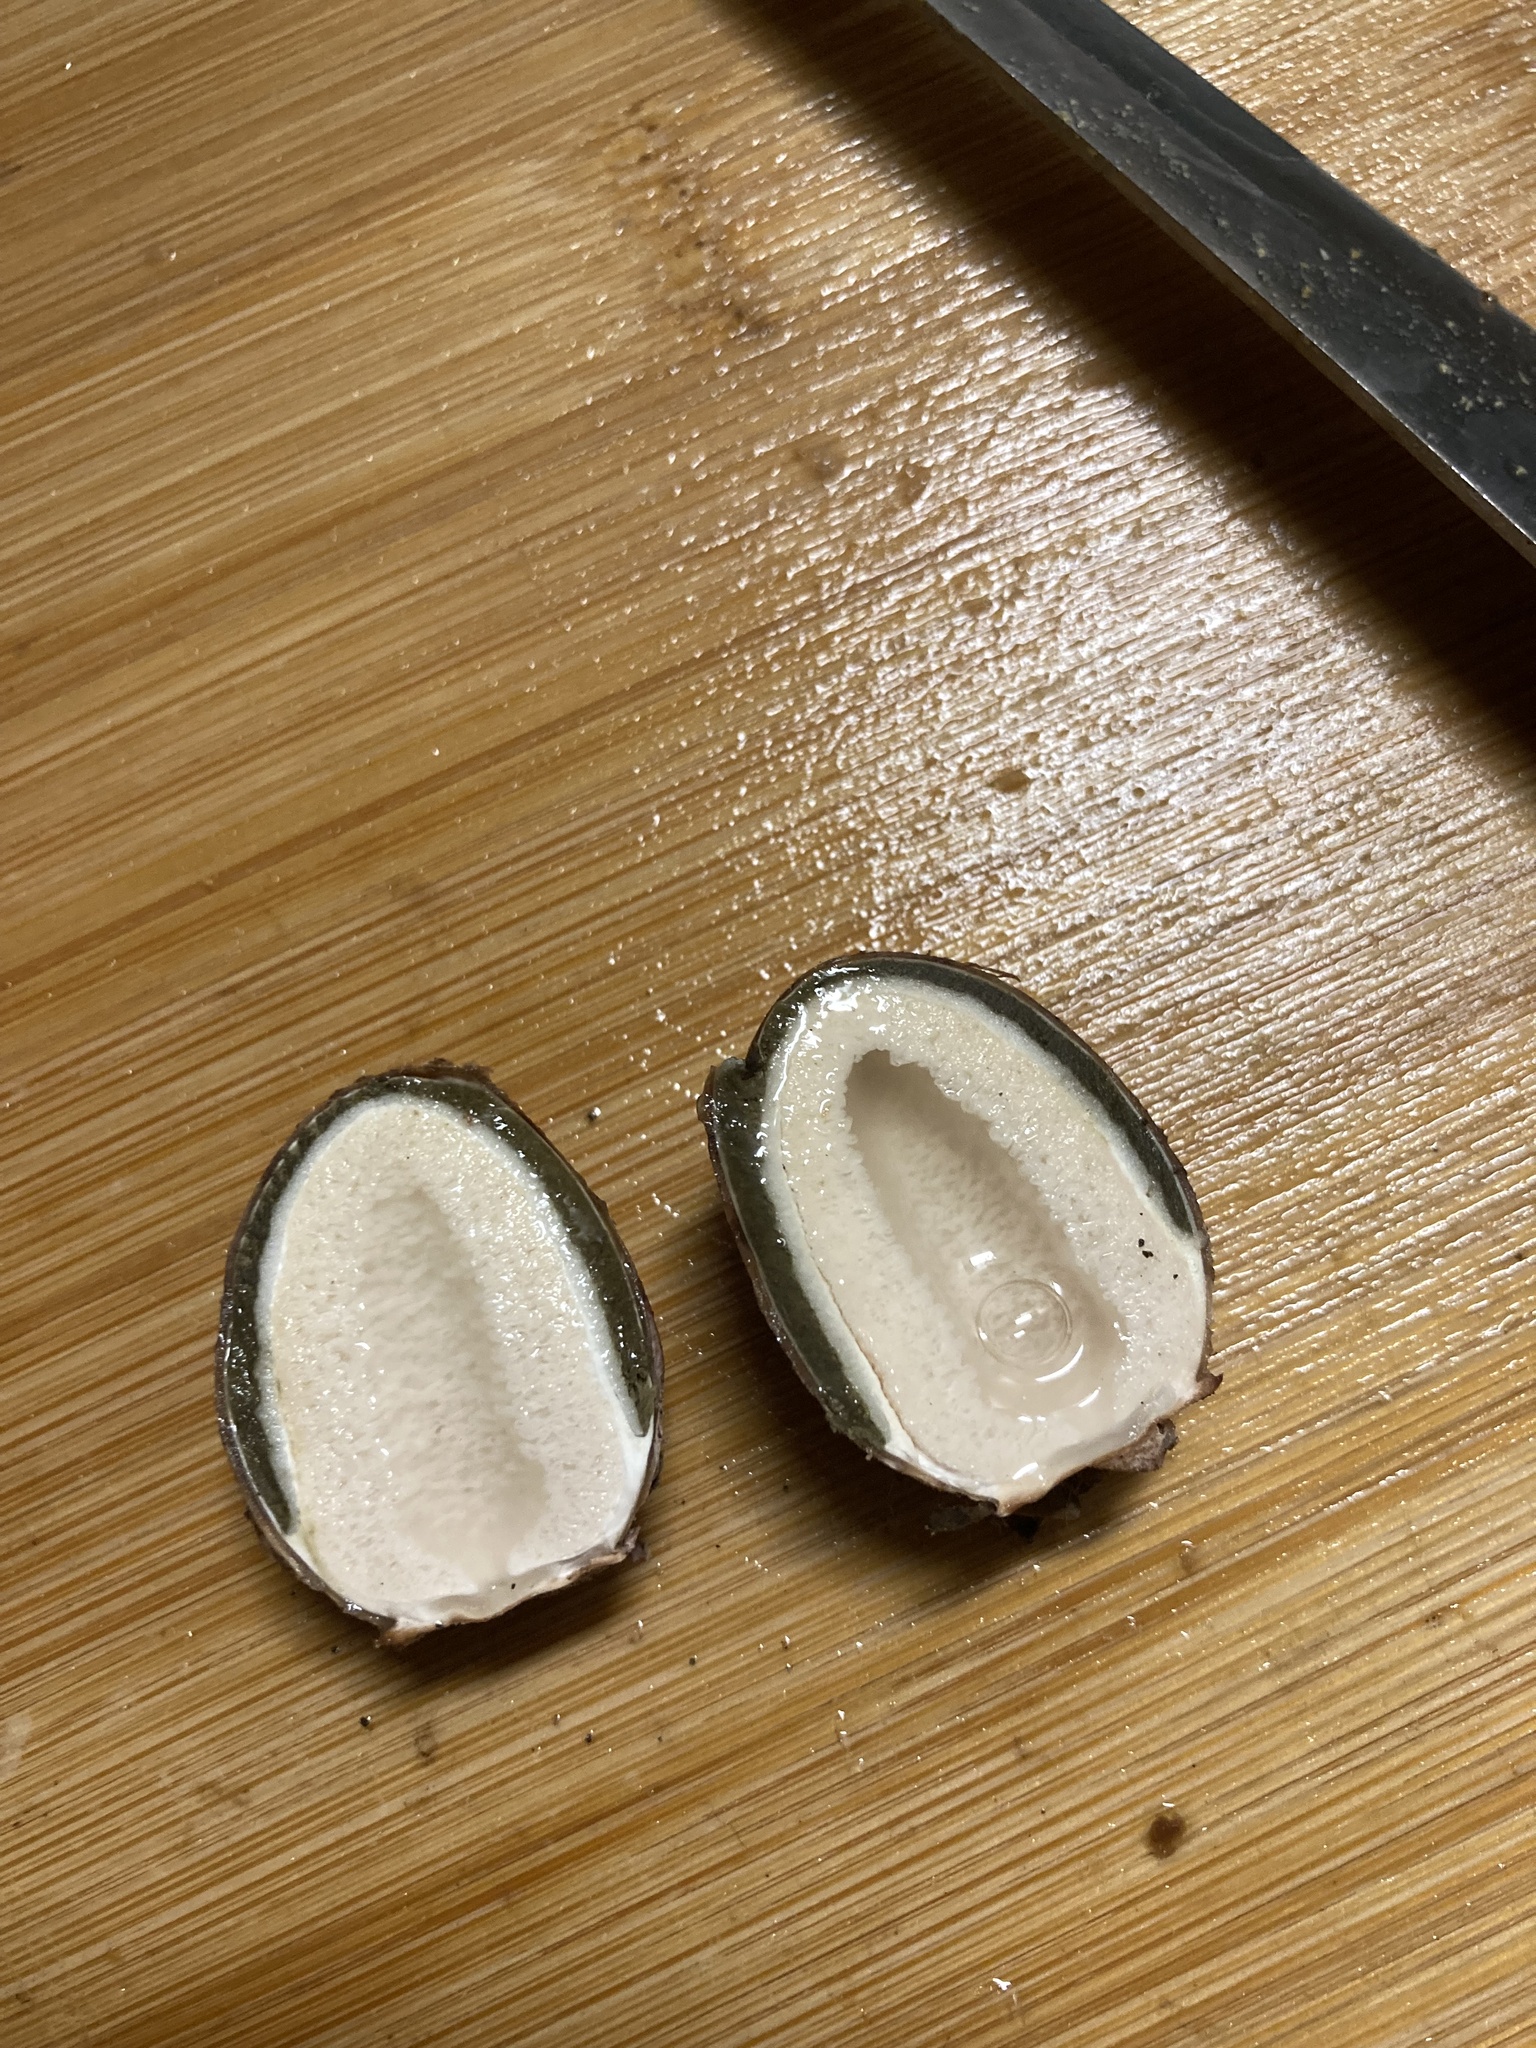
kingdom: Fungi
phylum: Basidiomycota
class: Agaricomycetes
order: Phallales
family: Phallaceae
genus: Phallus
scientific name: Phallus ravenelii
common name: Ravenel's stinkhorn
